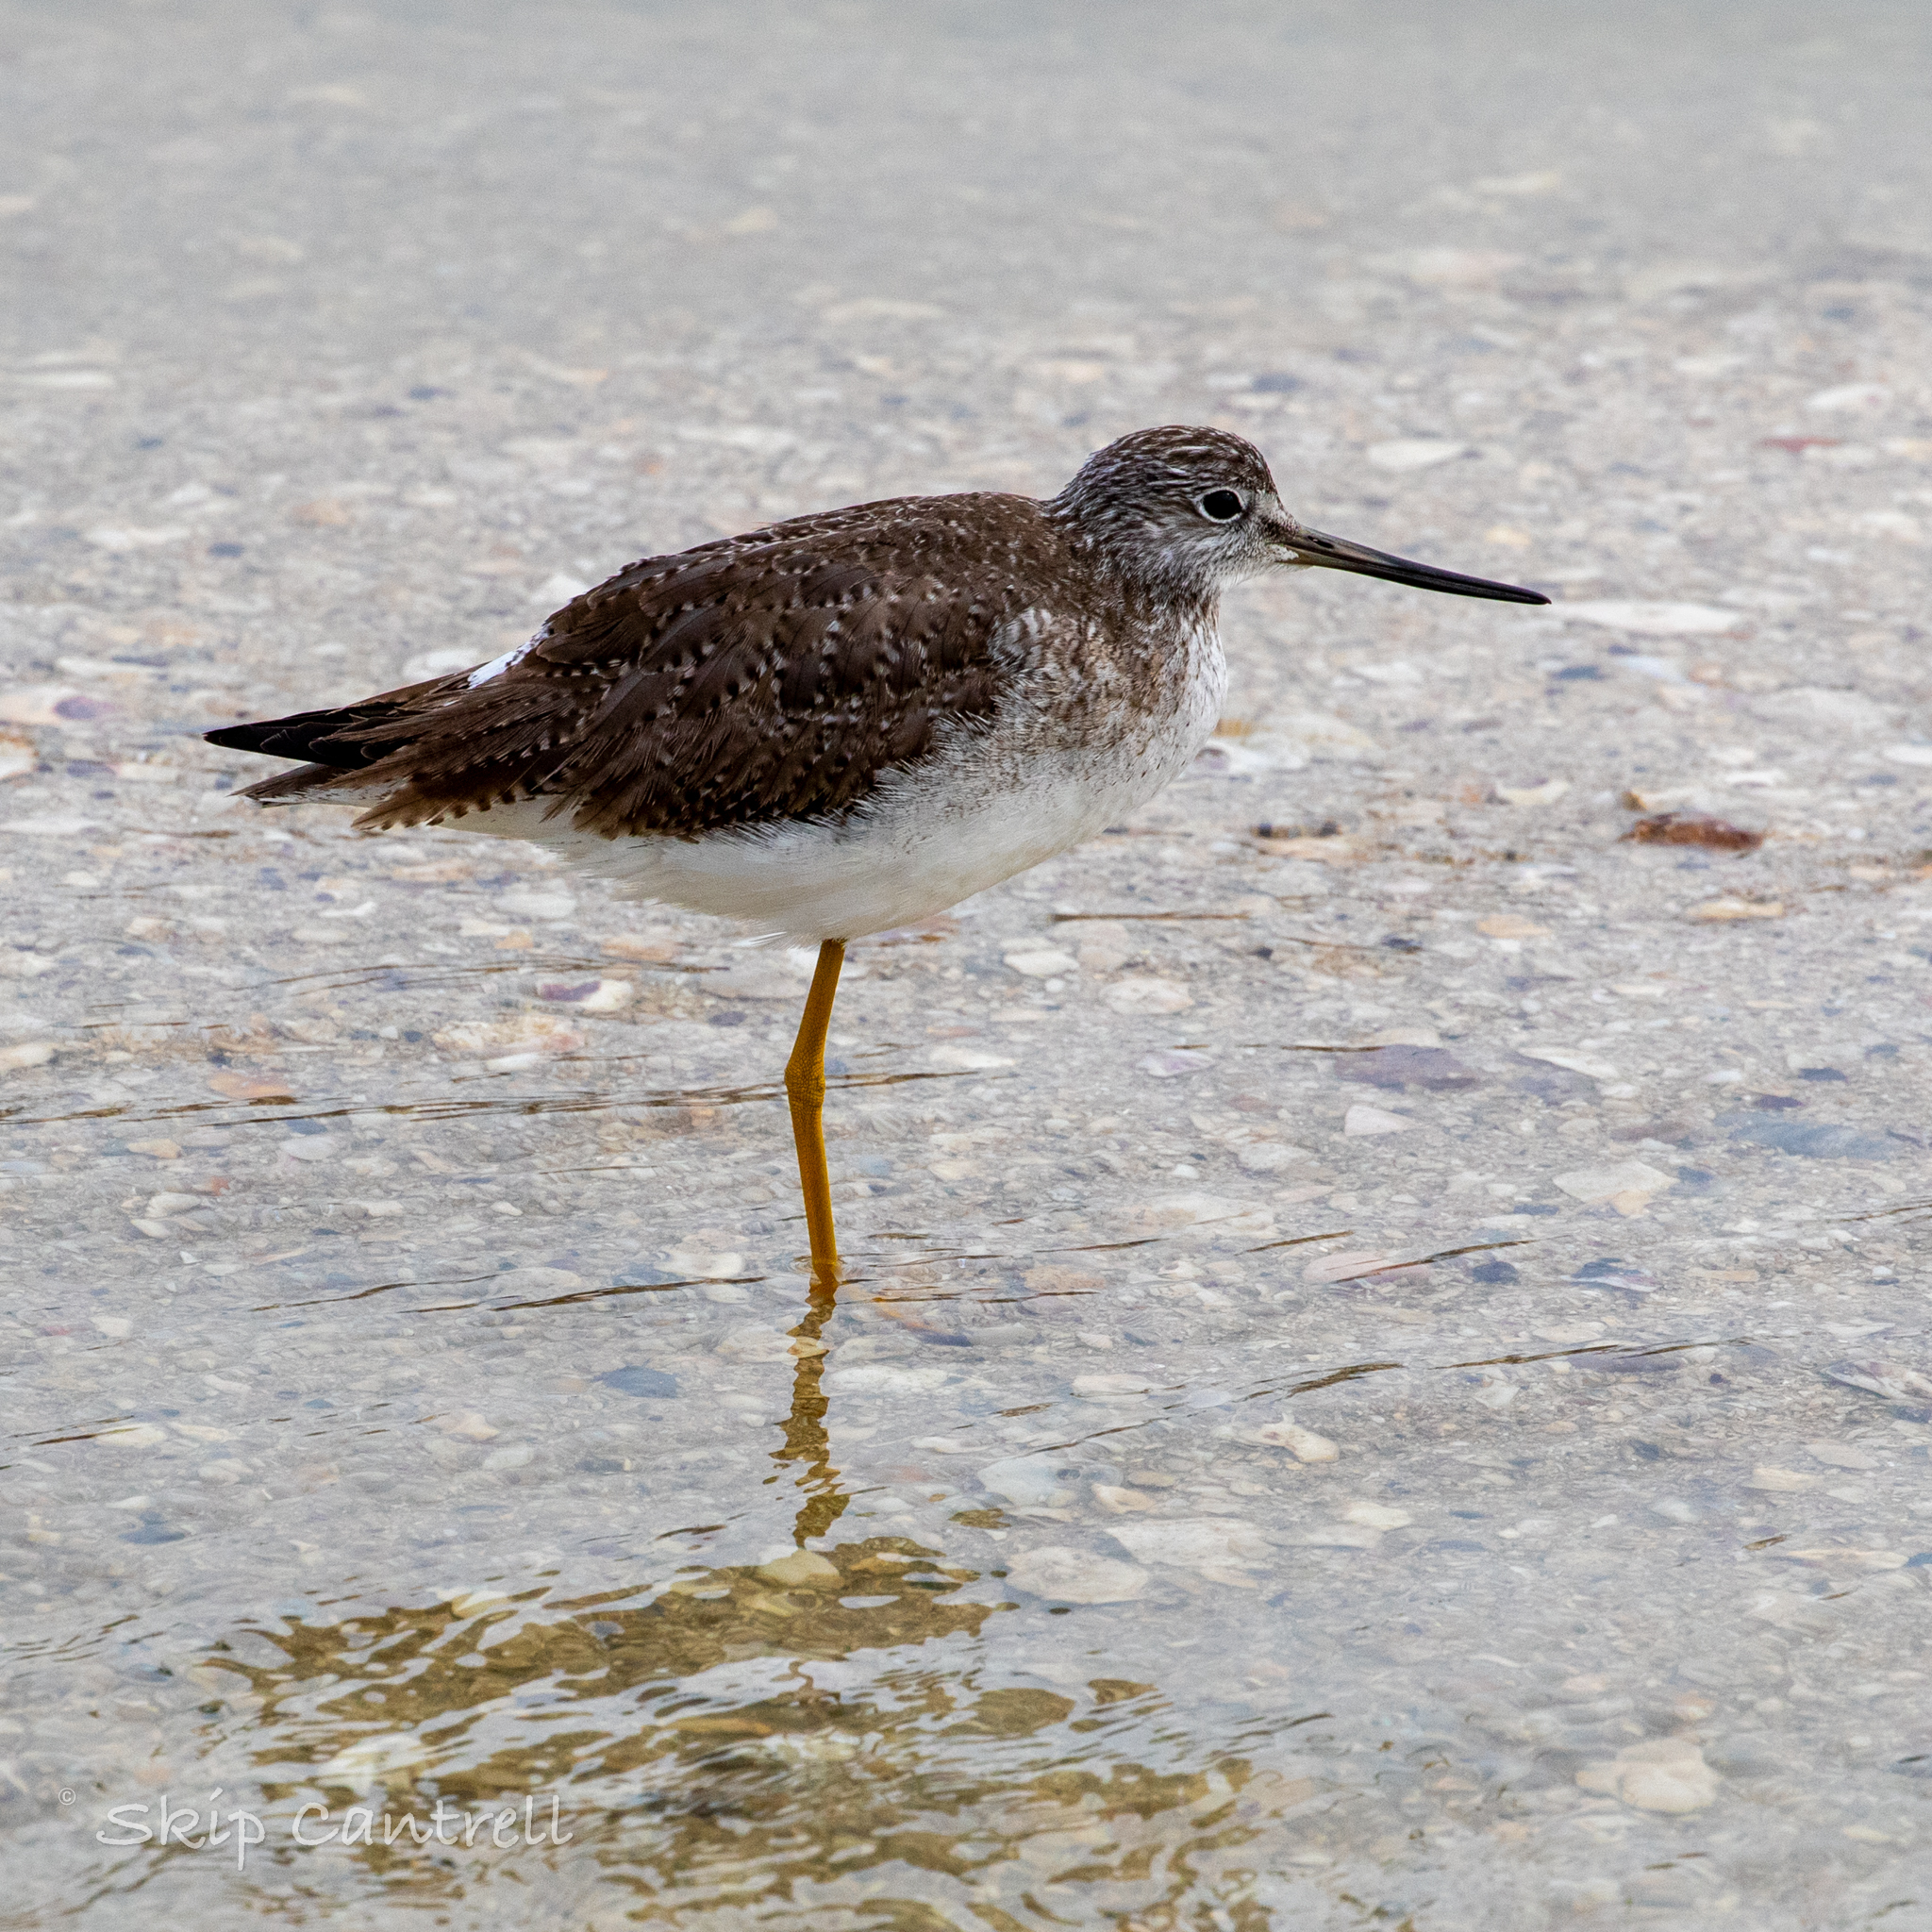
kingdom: Animalia
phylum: Chordata
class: Aves
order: Charadriiformes
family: Scolopacidae
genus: Tringa
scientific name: Tringa melanoleuca
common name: Greater yellowlegs
